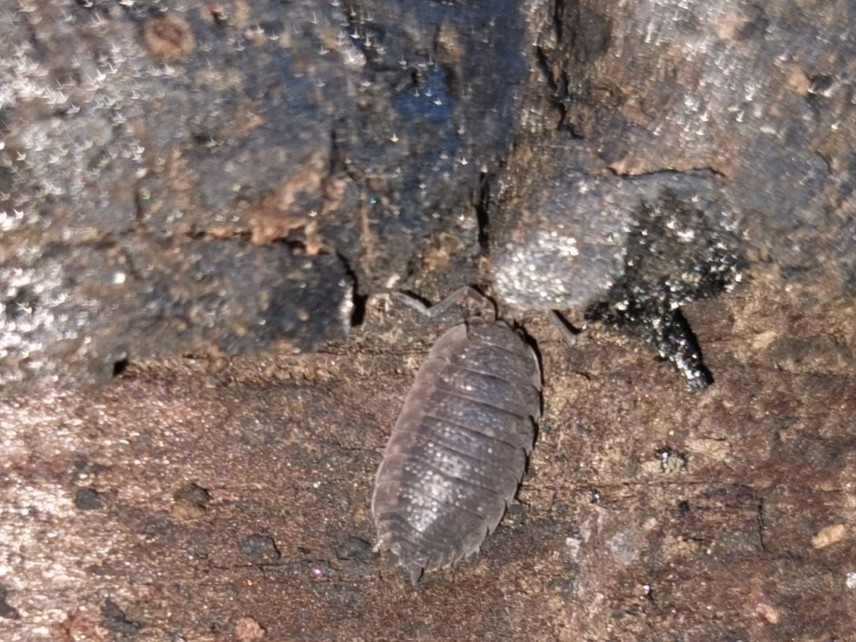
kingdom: Animalia
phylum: Arthropoda
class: Malacostraca
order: Isopoda
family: Porcellionidae
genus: Porcellio
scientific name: Porcellio scaber
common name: Common rough woodlouse
